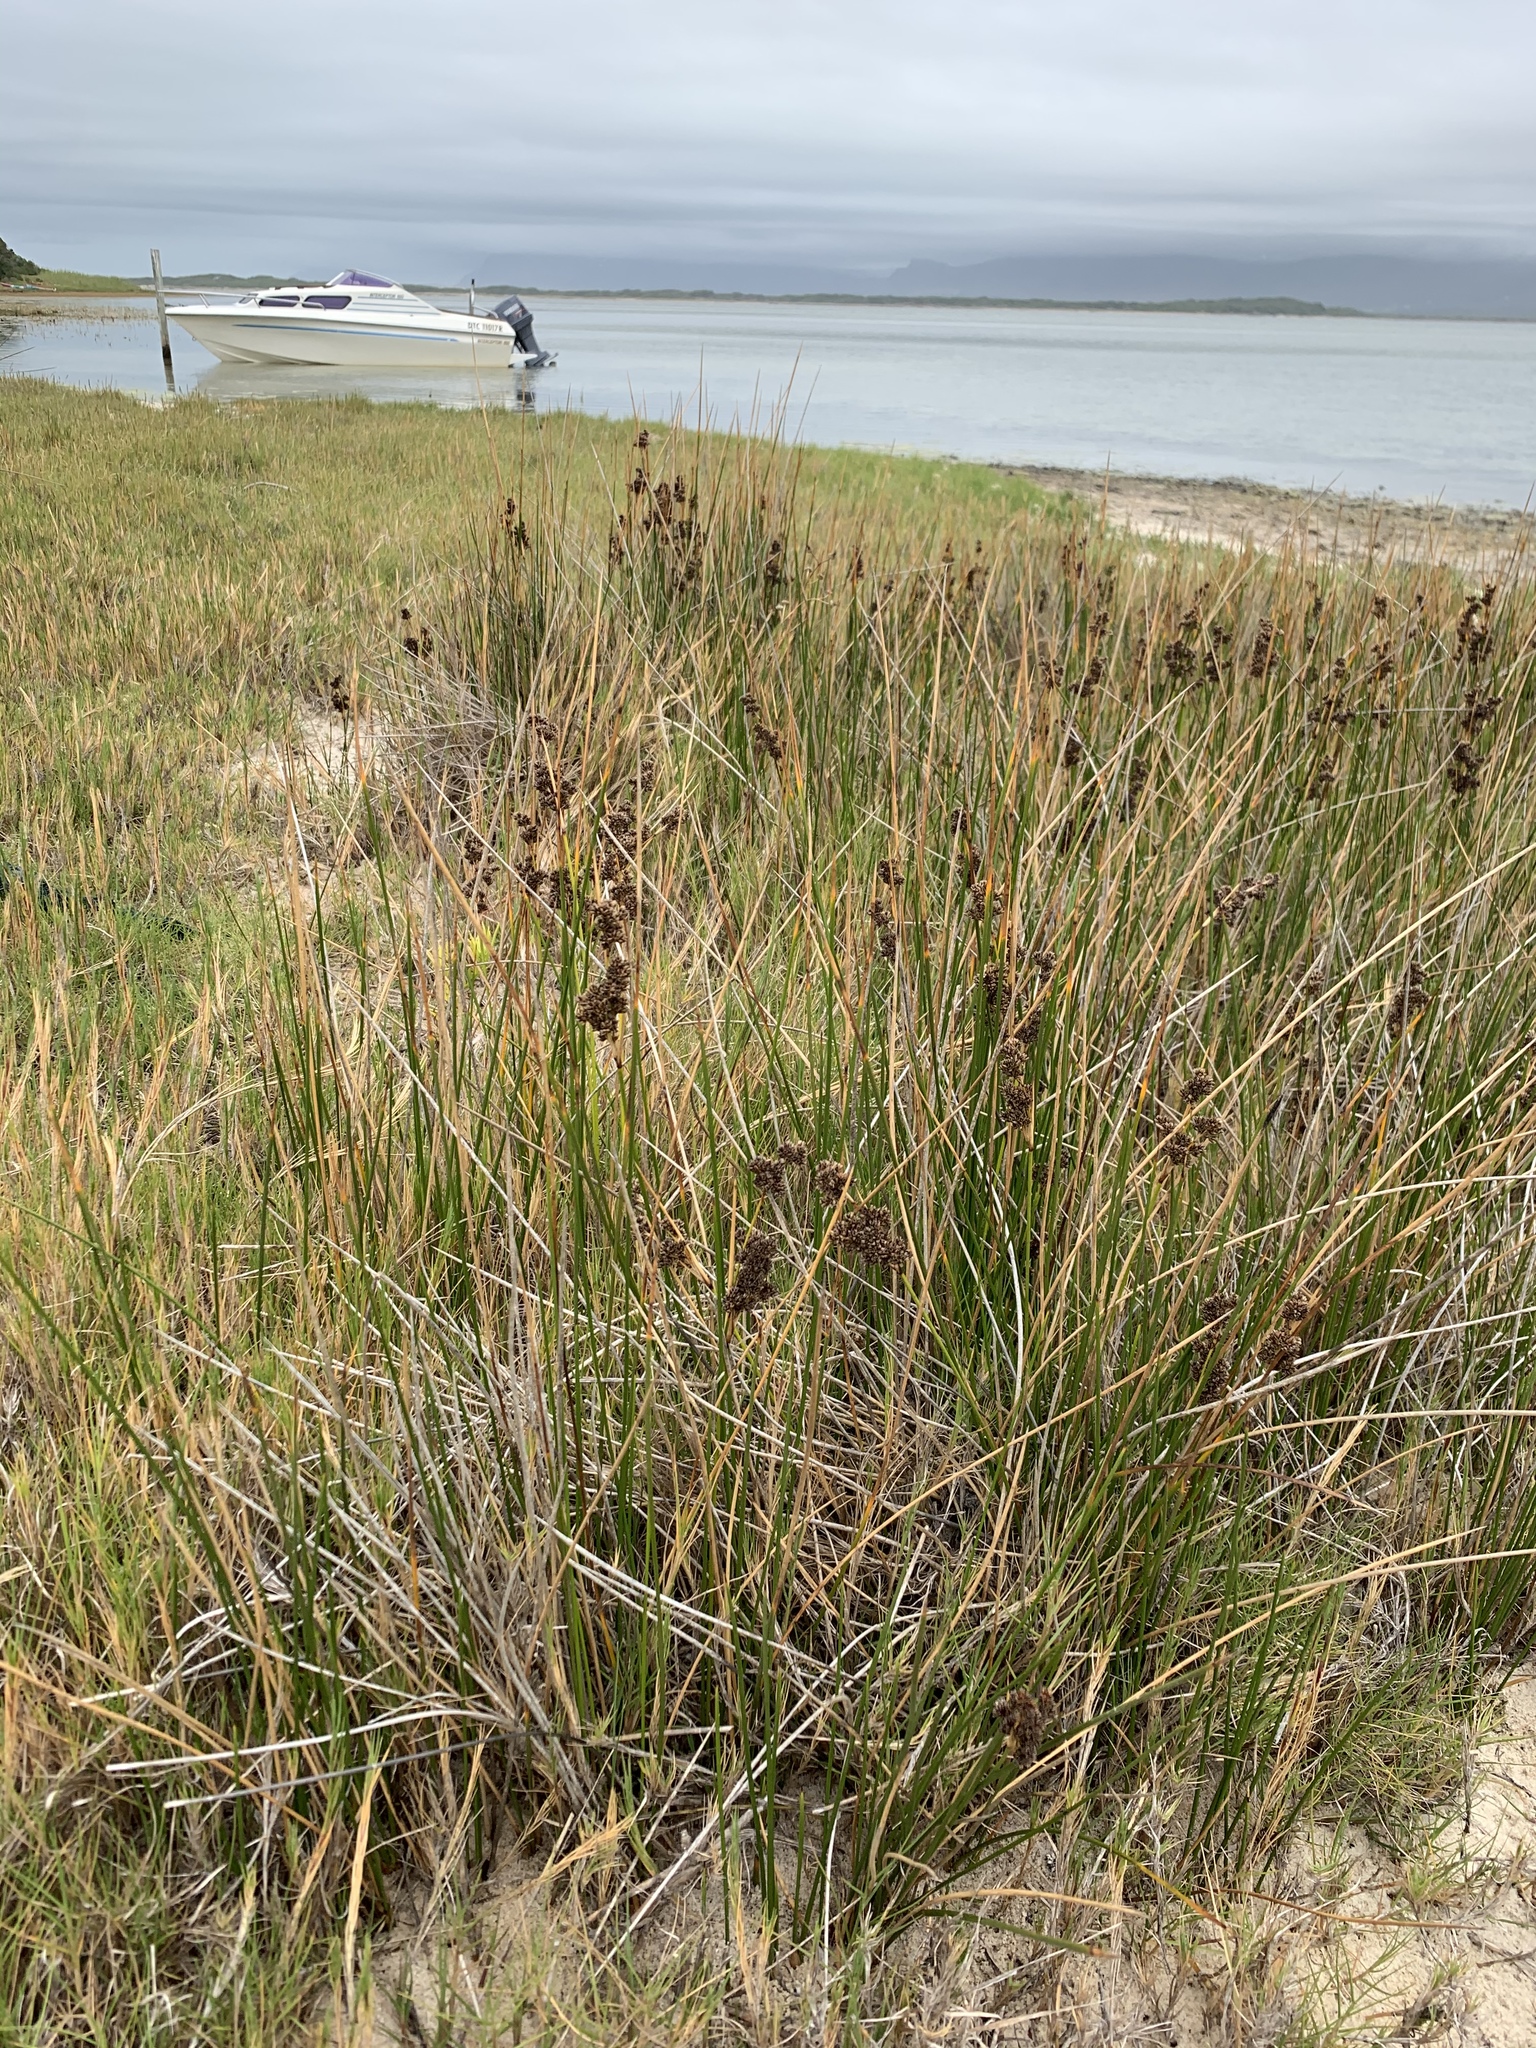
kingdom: Plantae
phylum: Tracheophyta
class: Liliopsida
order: Poales
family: Juncaceae
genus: Juncus
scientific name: Juncus kraussii
